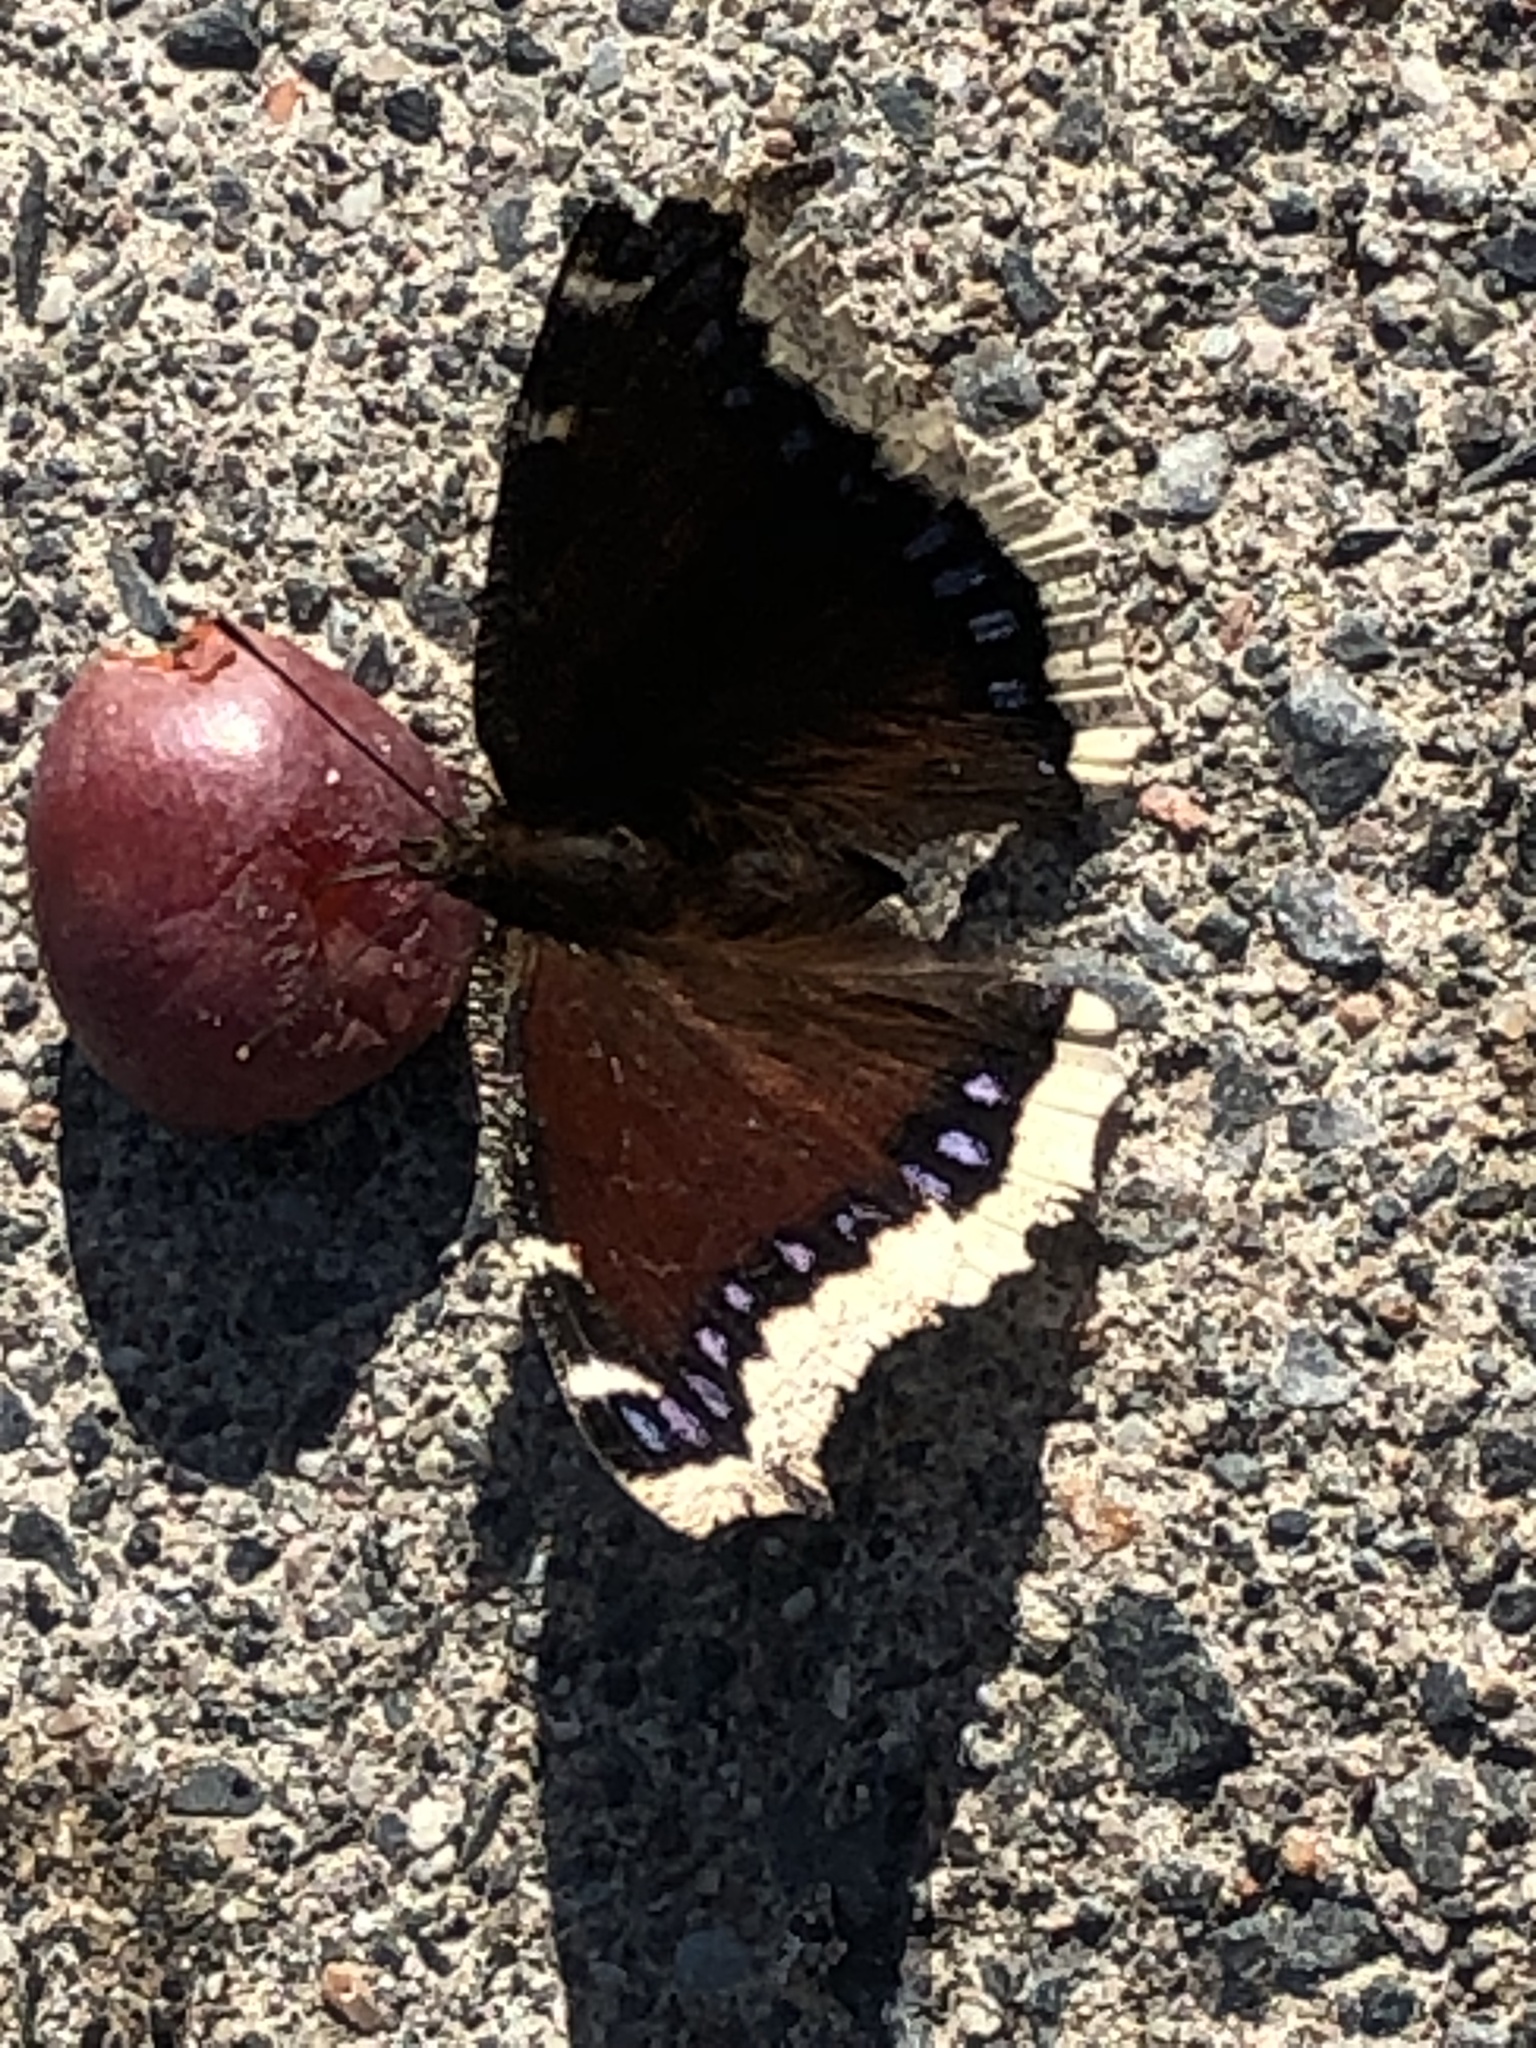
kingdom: Animalia
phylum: Arthropoda
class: Insecta
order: Lepidoptera
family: Nymphalidae
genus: Nymphalis
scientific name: Nymphalis antiopa
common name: Camberwell beauty
